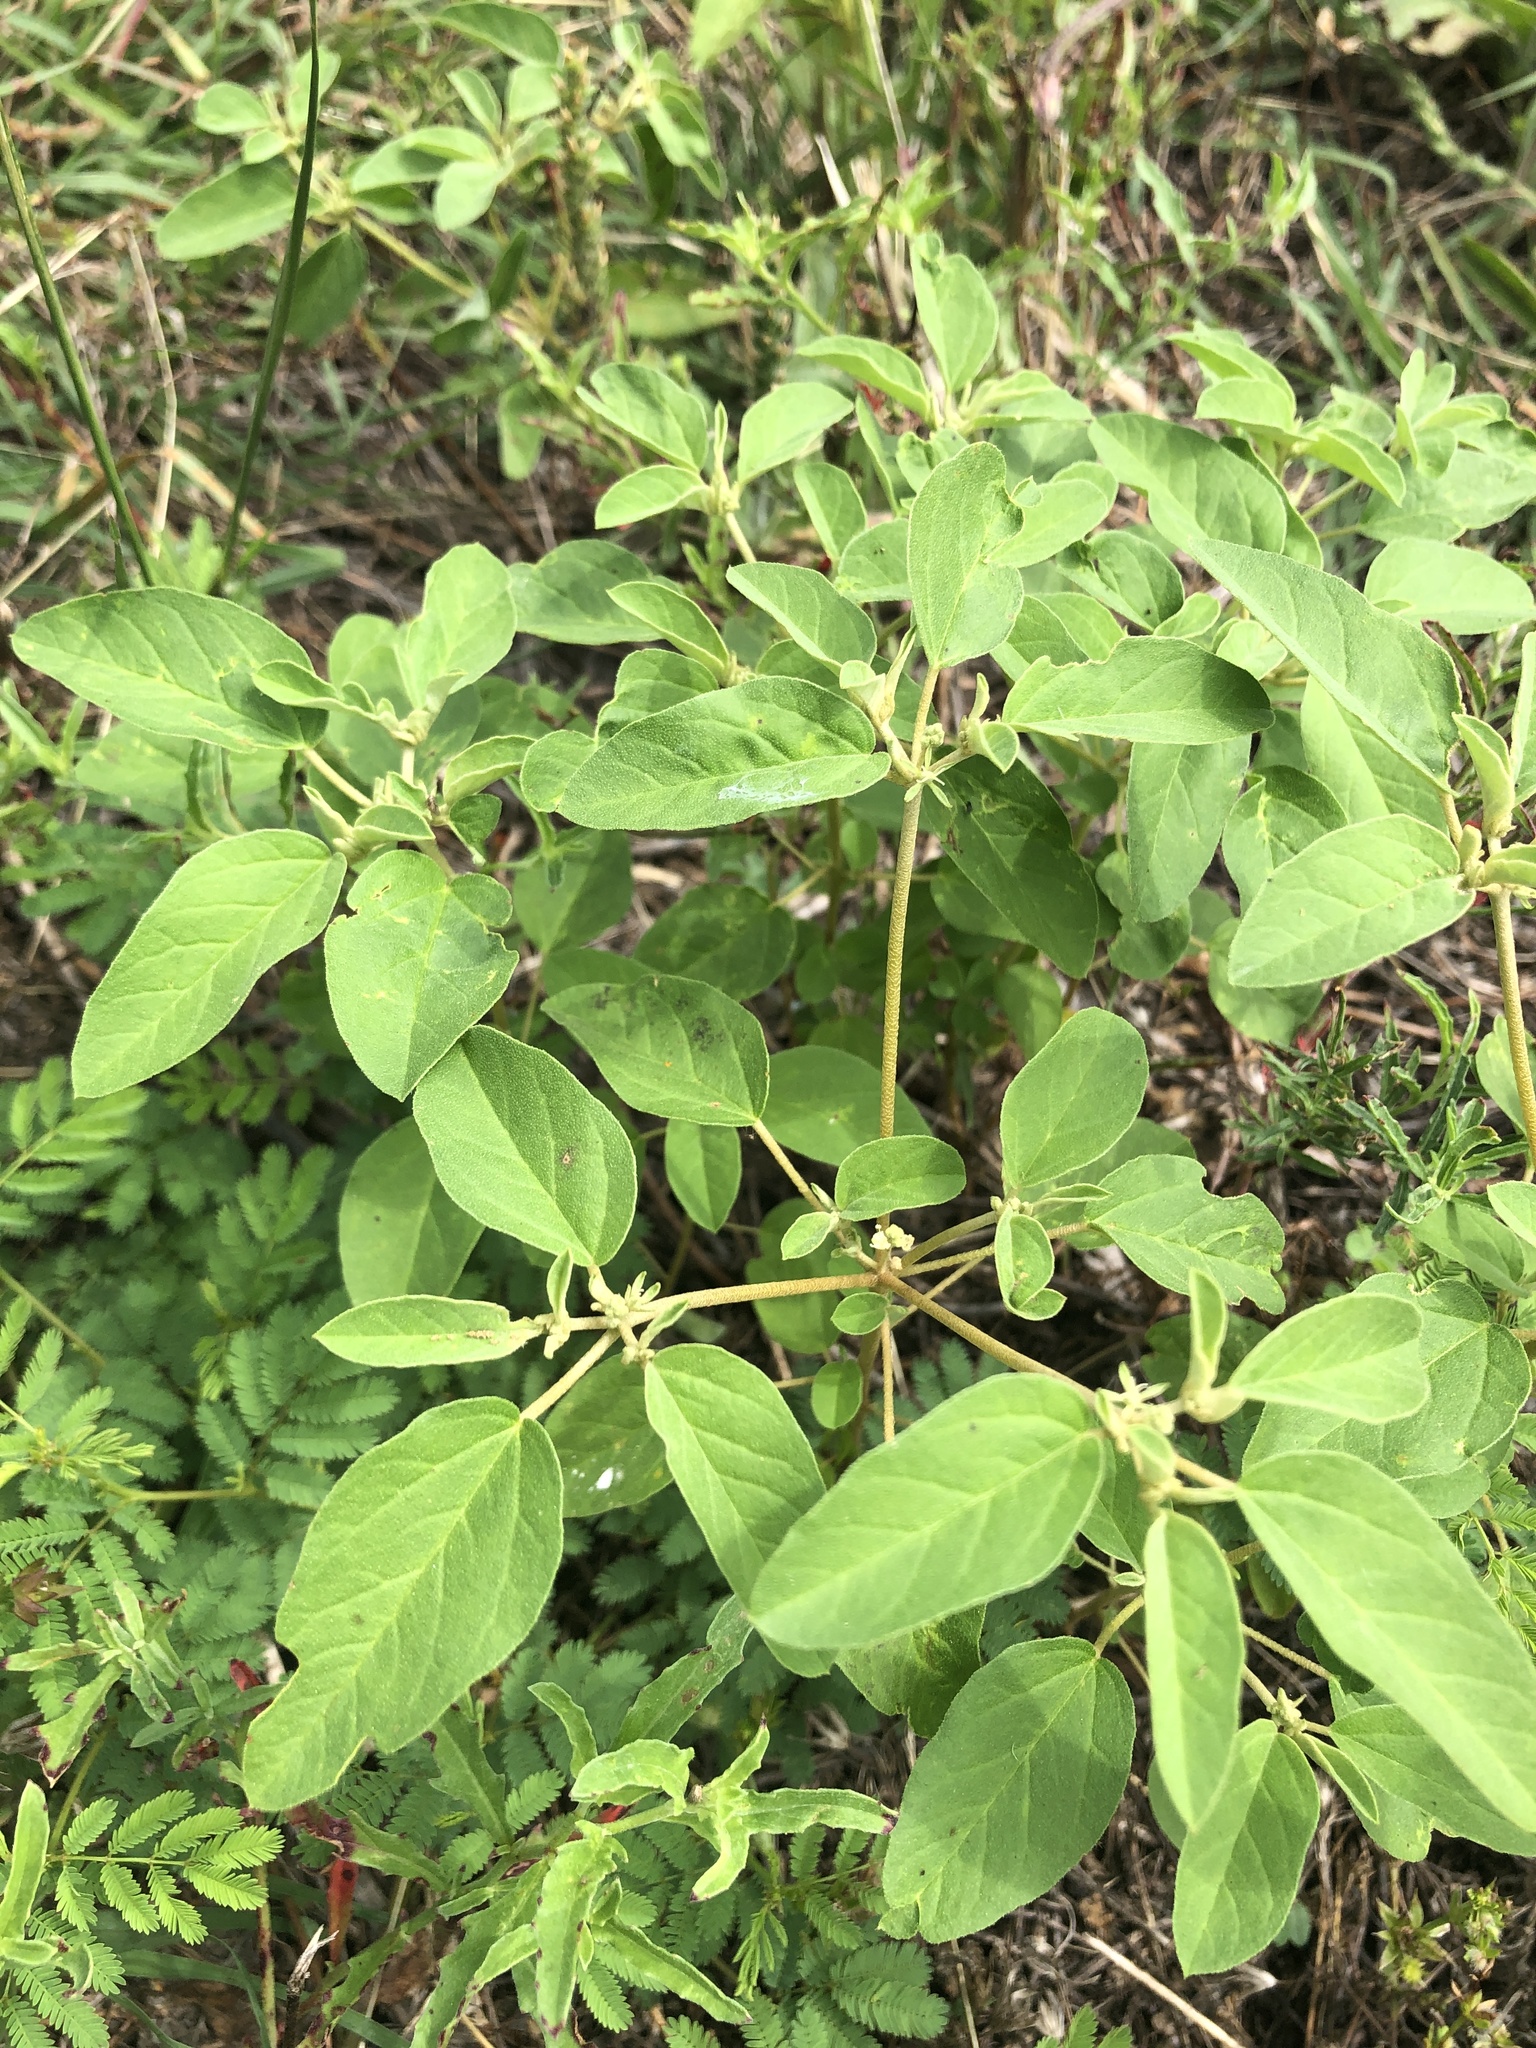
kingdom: Plantae
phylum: Tracheophyta
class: Magnoliopsida
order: Malpighiales
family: Euphorbiaceae
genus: Croton
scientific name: Croton monanthogynus
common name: One-seed croton
